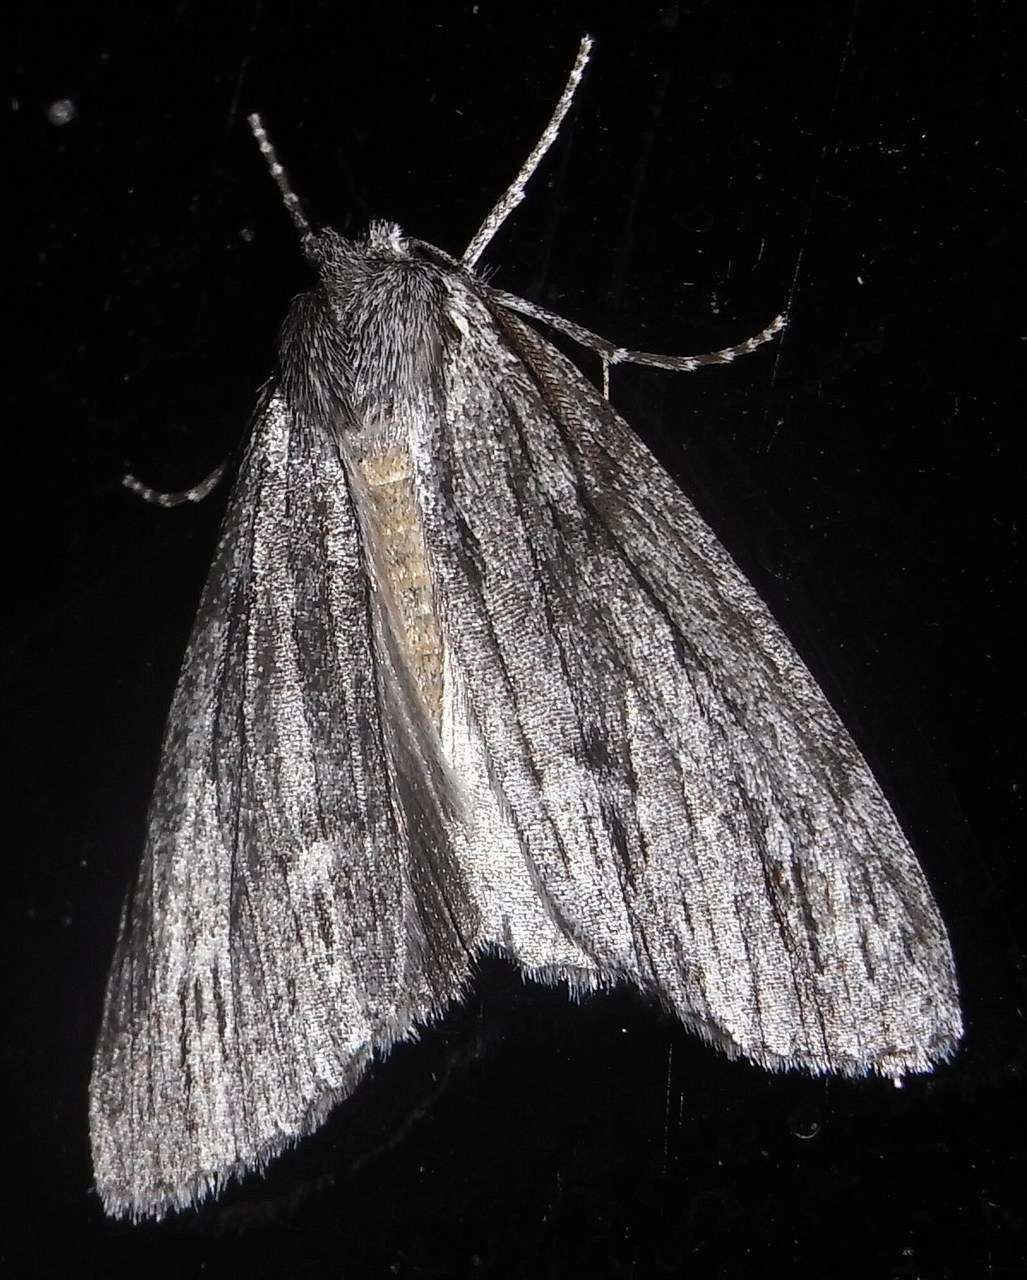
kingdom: Animalia
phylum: Arthropoda
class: Insecta
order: Lepidoptera
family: Geometridae
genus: Chlenias
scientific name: Chlenias
